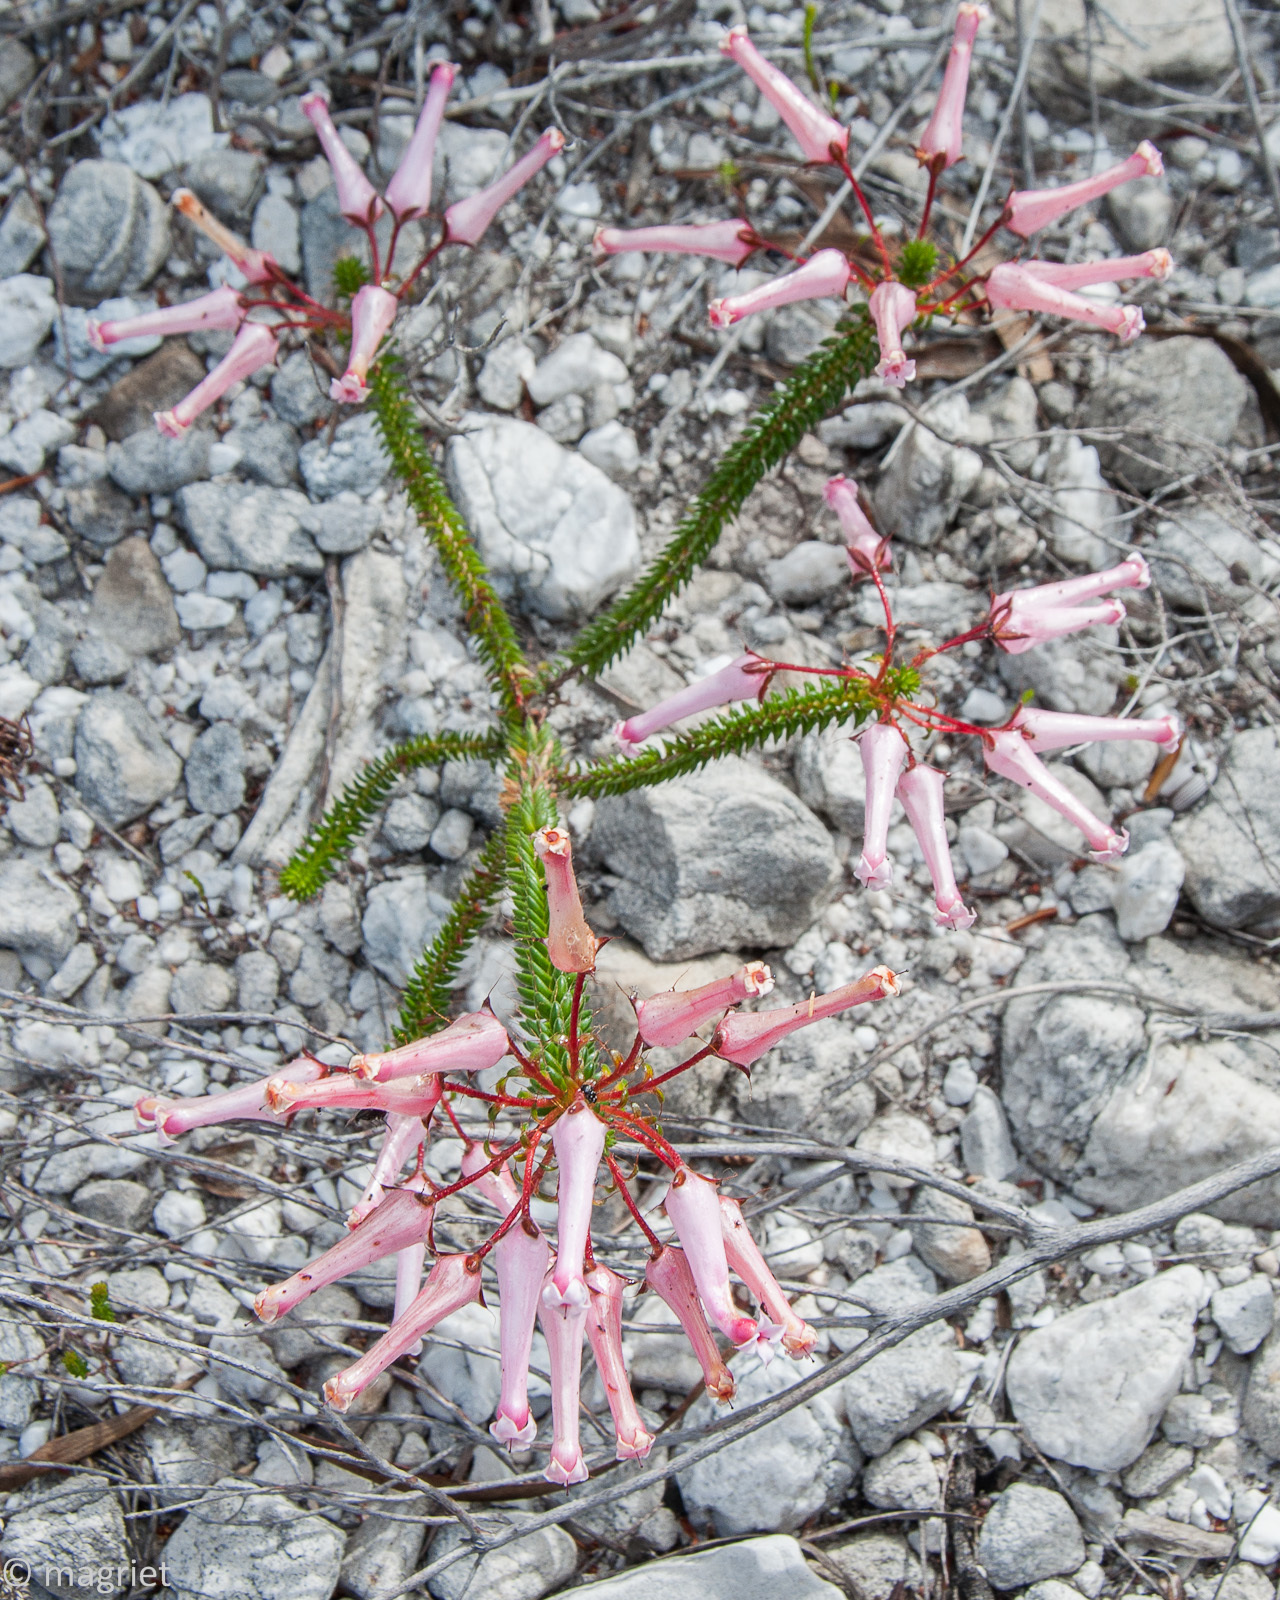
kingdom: Plantae
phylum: Tracheophyta
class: Magnoliopsida
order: Ericales
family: Ericaceae
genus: Erica
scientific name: Erica retorta
